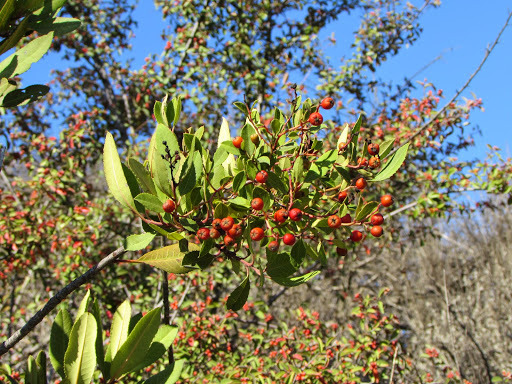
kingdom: Plantae
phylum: Tracheophyta
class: Magnoliopsida
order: Rosales
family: Rosaceae
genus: Heteromeles
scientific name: Heteromeles arbutifolia
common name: California-holly
